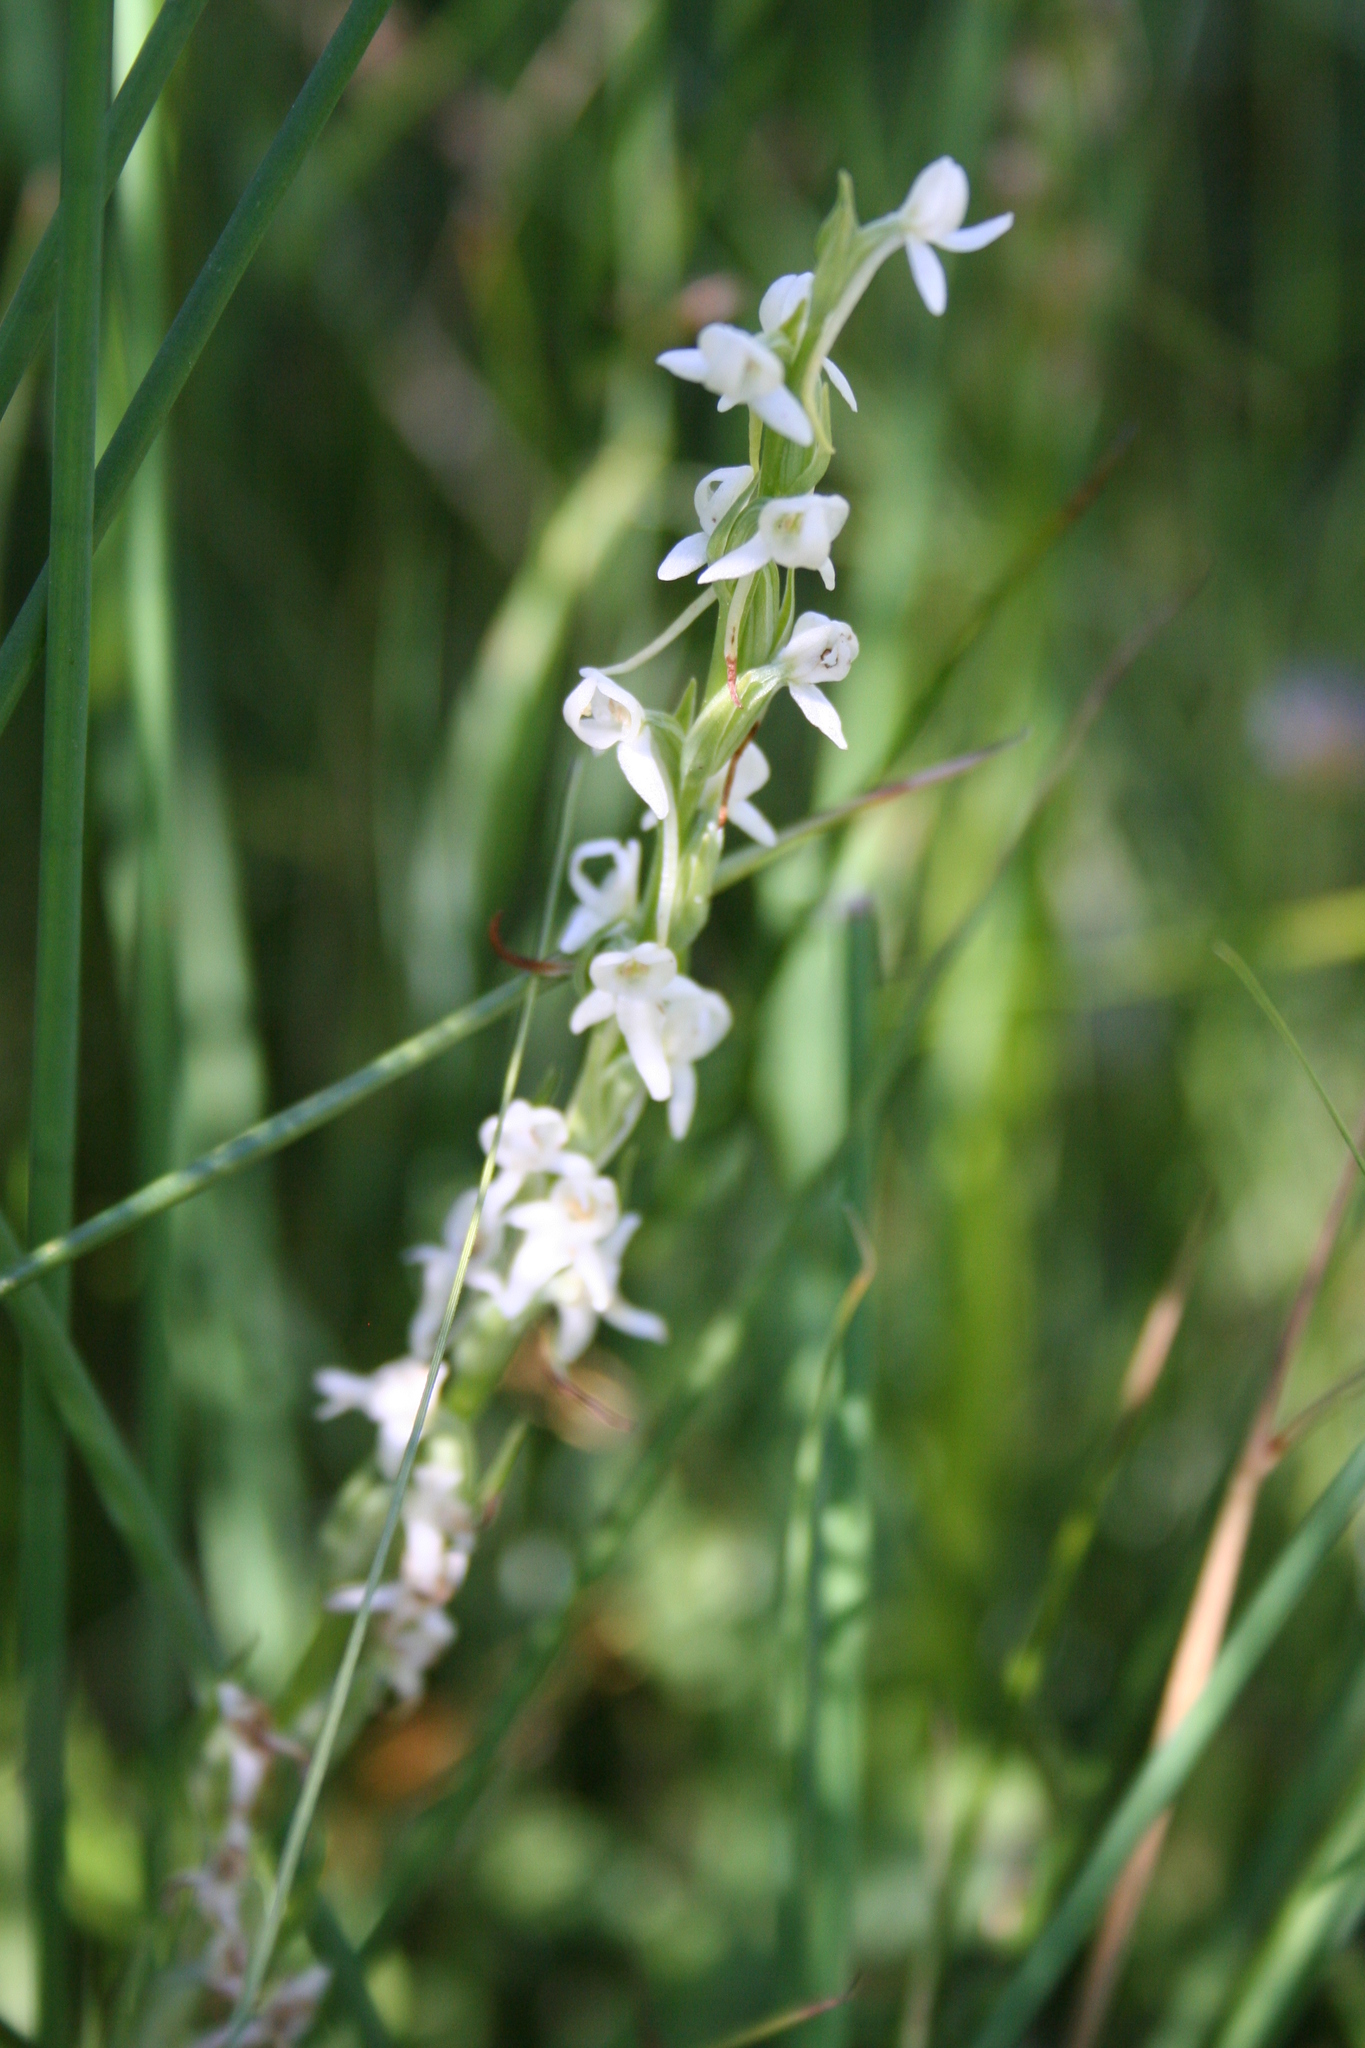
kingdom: Plantae
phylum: Tracheophyta
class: Liliopsida
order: Asparagales
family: Orchidaceae
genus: Platanthera
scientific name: Platanthera dilatata
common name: Bog candles
